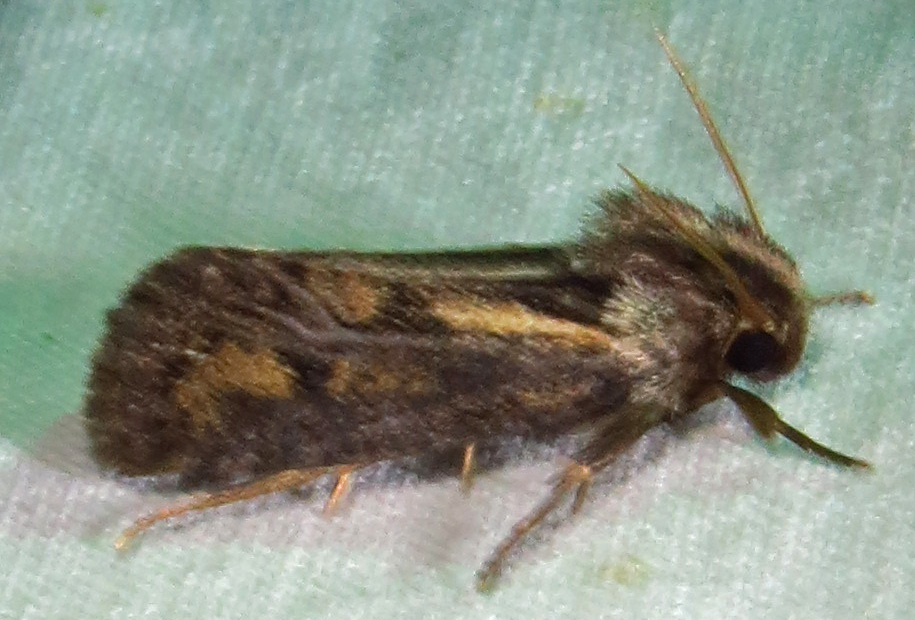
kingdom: Animalia
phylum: Arthropoda
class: Insecta
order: Lepidoptera
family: Tineidae
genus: Acrolophus
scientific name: Acrolophus popeanella
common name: Clemens' grass tubeworm moth
